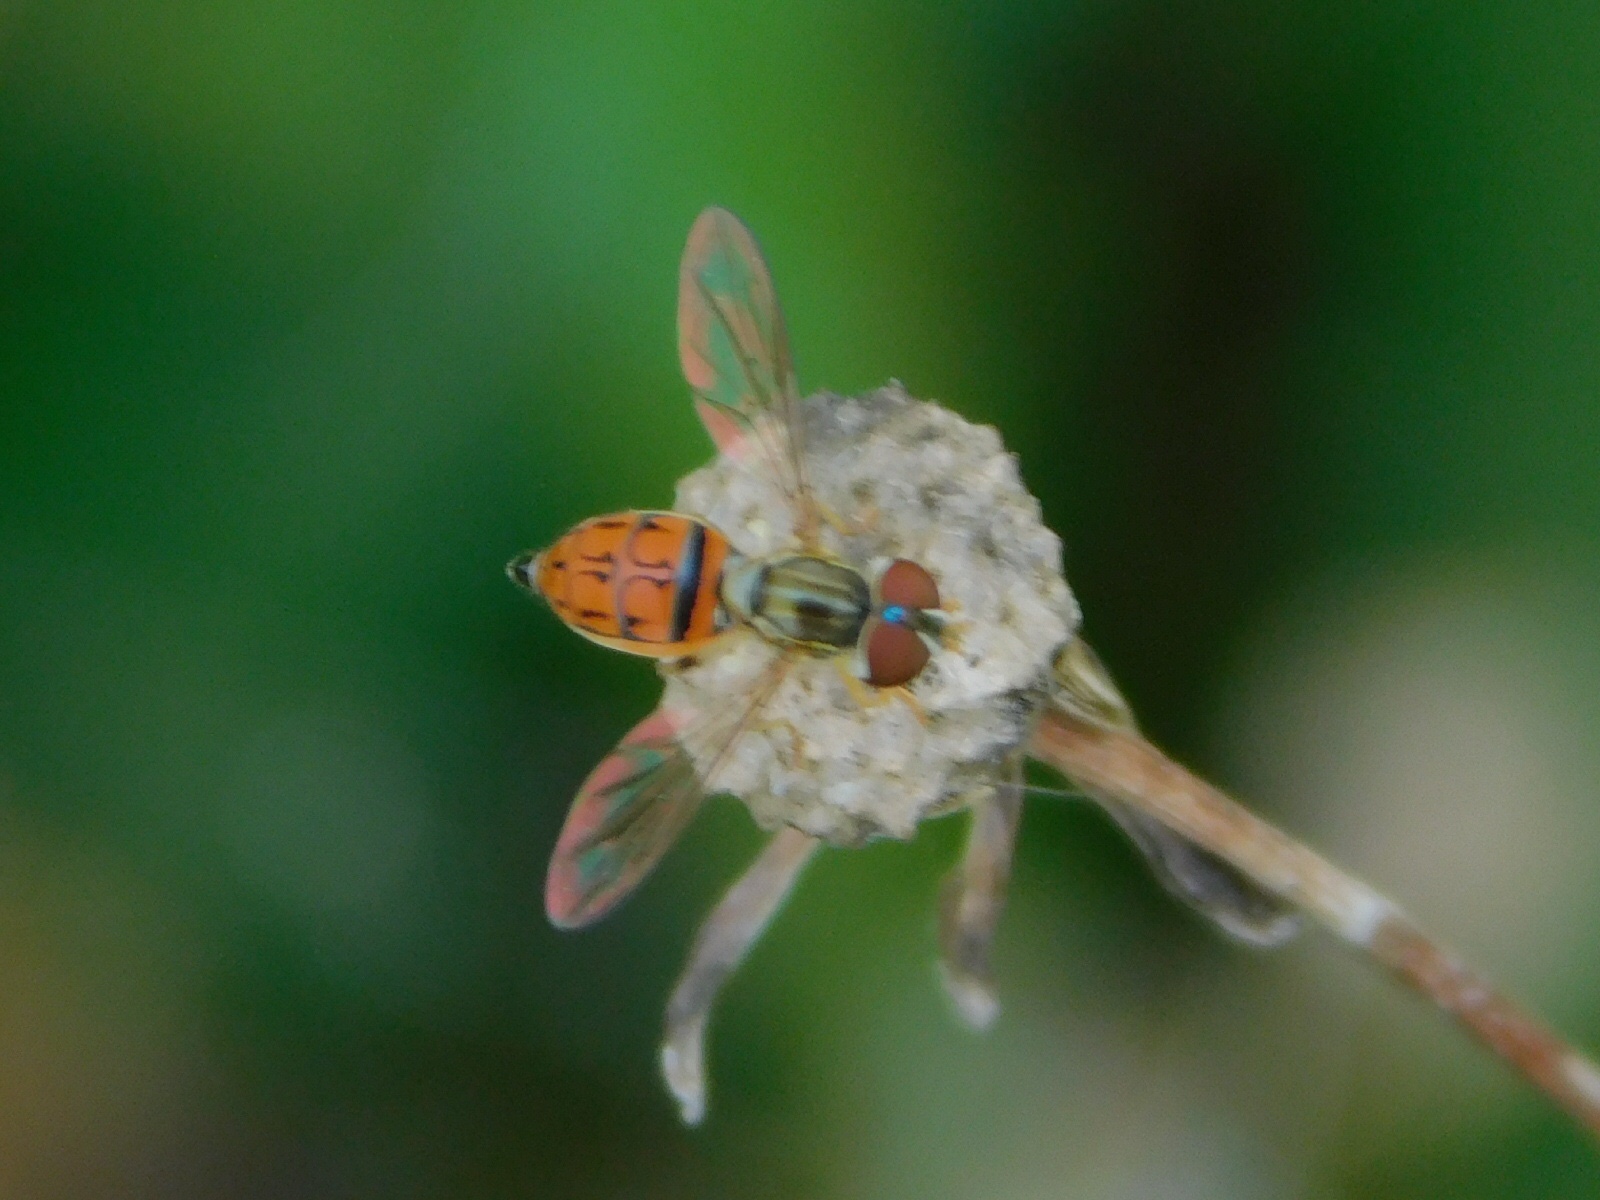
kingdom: Animalia
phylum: Arthropoda
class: Insecta
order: Diptera
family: Syrphidae
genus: Toxomerus
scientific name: Toxomerus boscii
